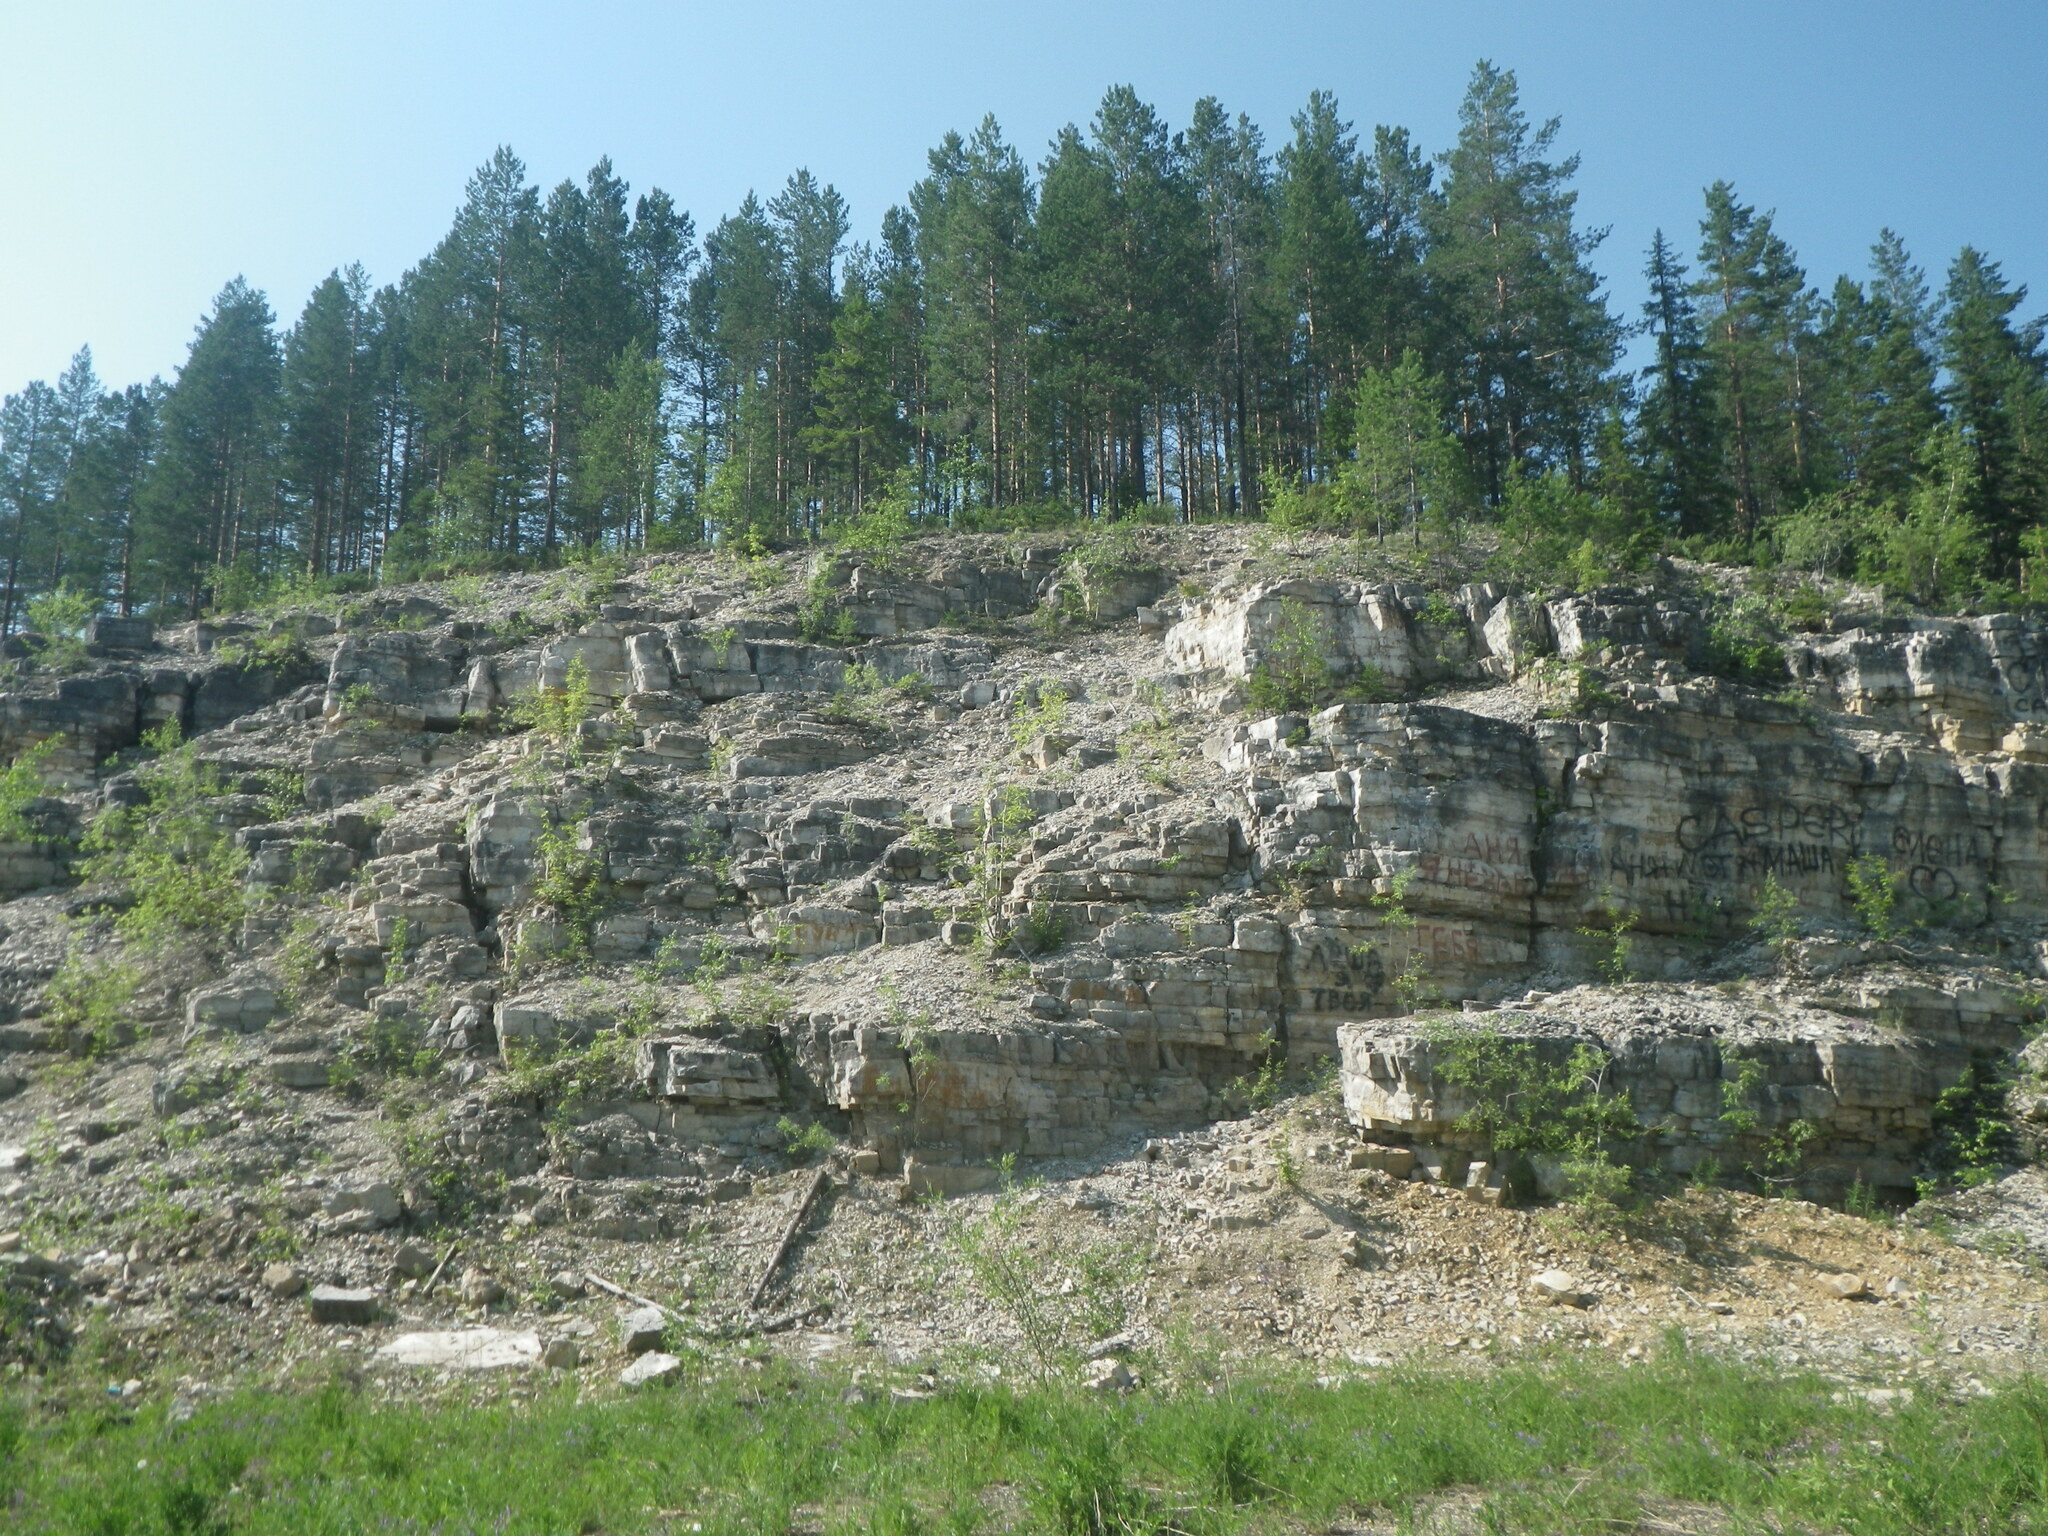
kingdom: Plantae
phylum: Tracheophyta
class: Pinopsida
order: Pinales
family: Pinaceae
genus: Pinus
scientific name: Pinus sylvestris
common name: Scots pine
